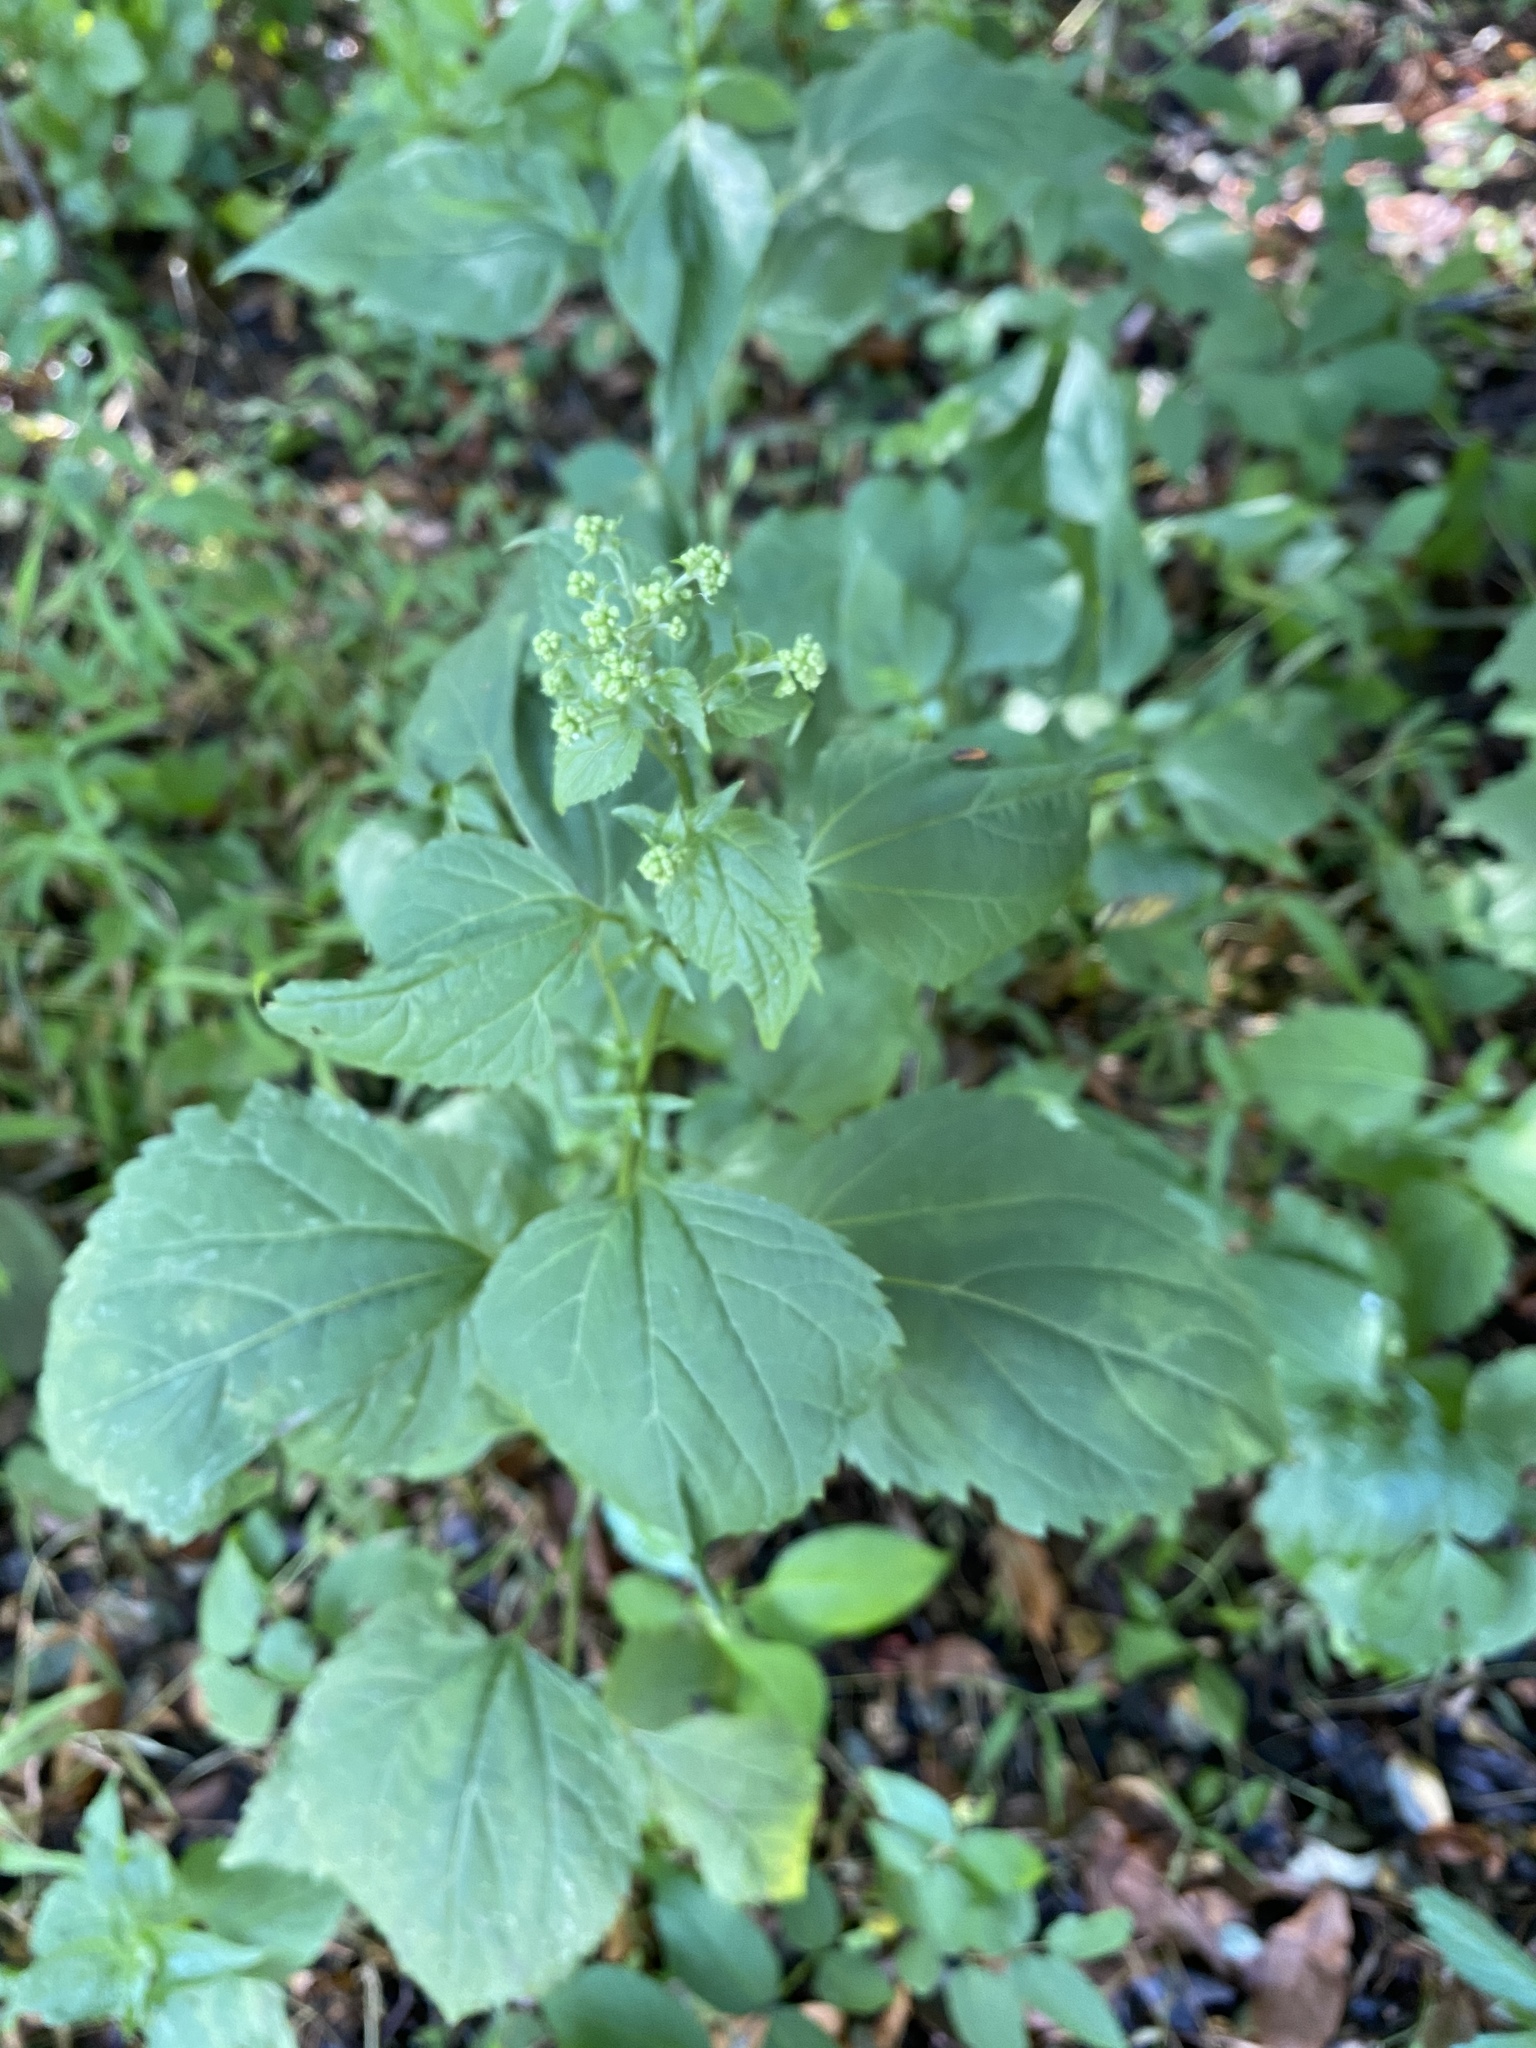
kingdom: Plantae
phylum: Tracheophyta
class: Magnoliopsida
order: Asterales
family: Asteraceae
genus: Ageratina
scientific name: Ageratina altissima
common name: White snakeroot
